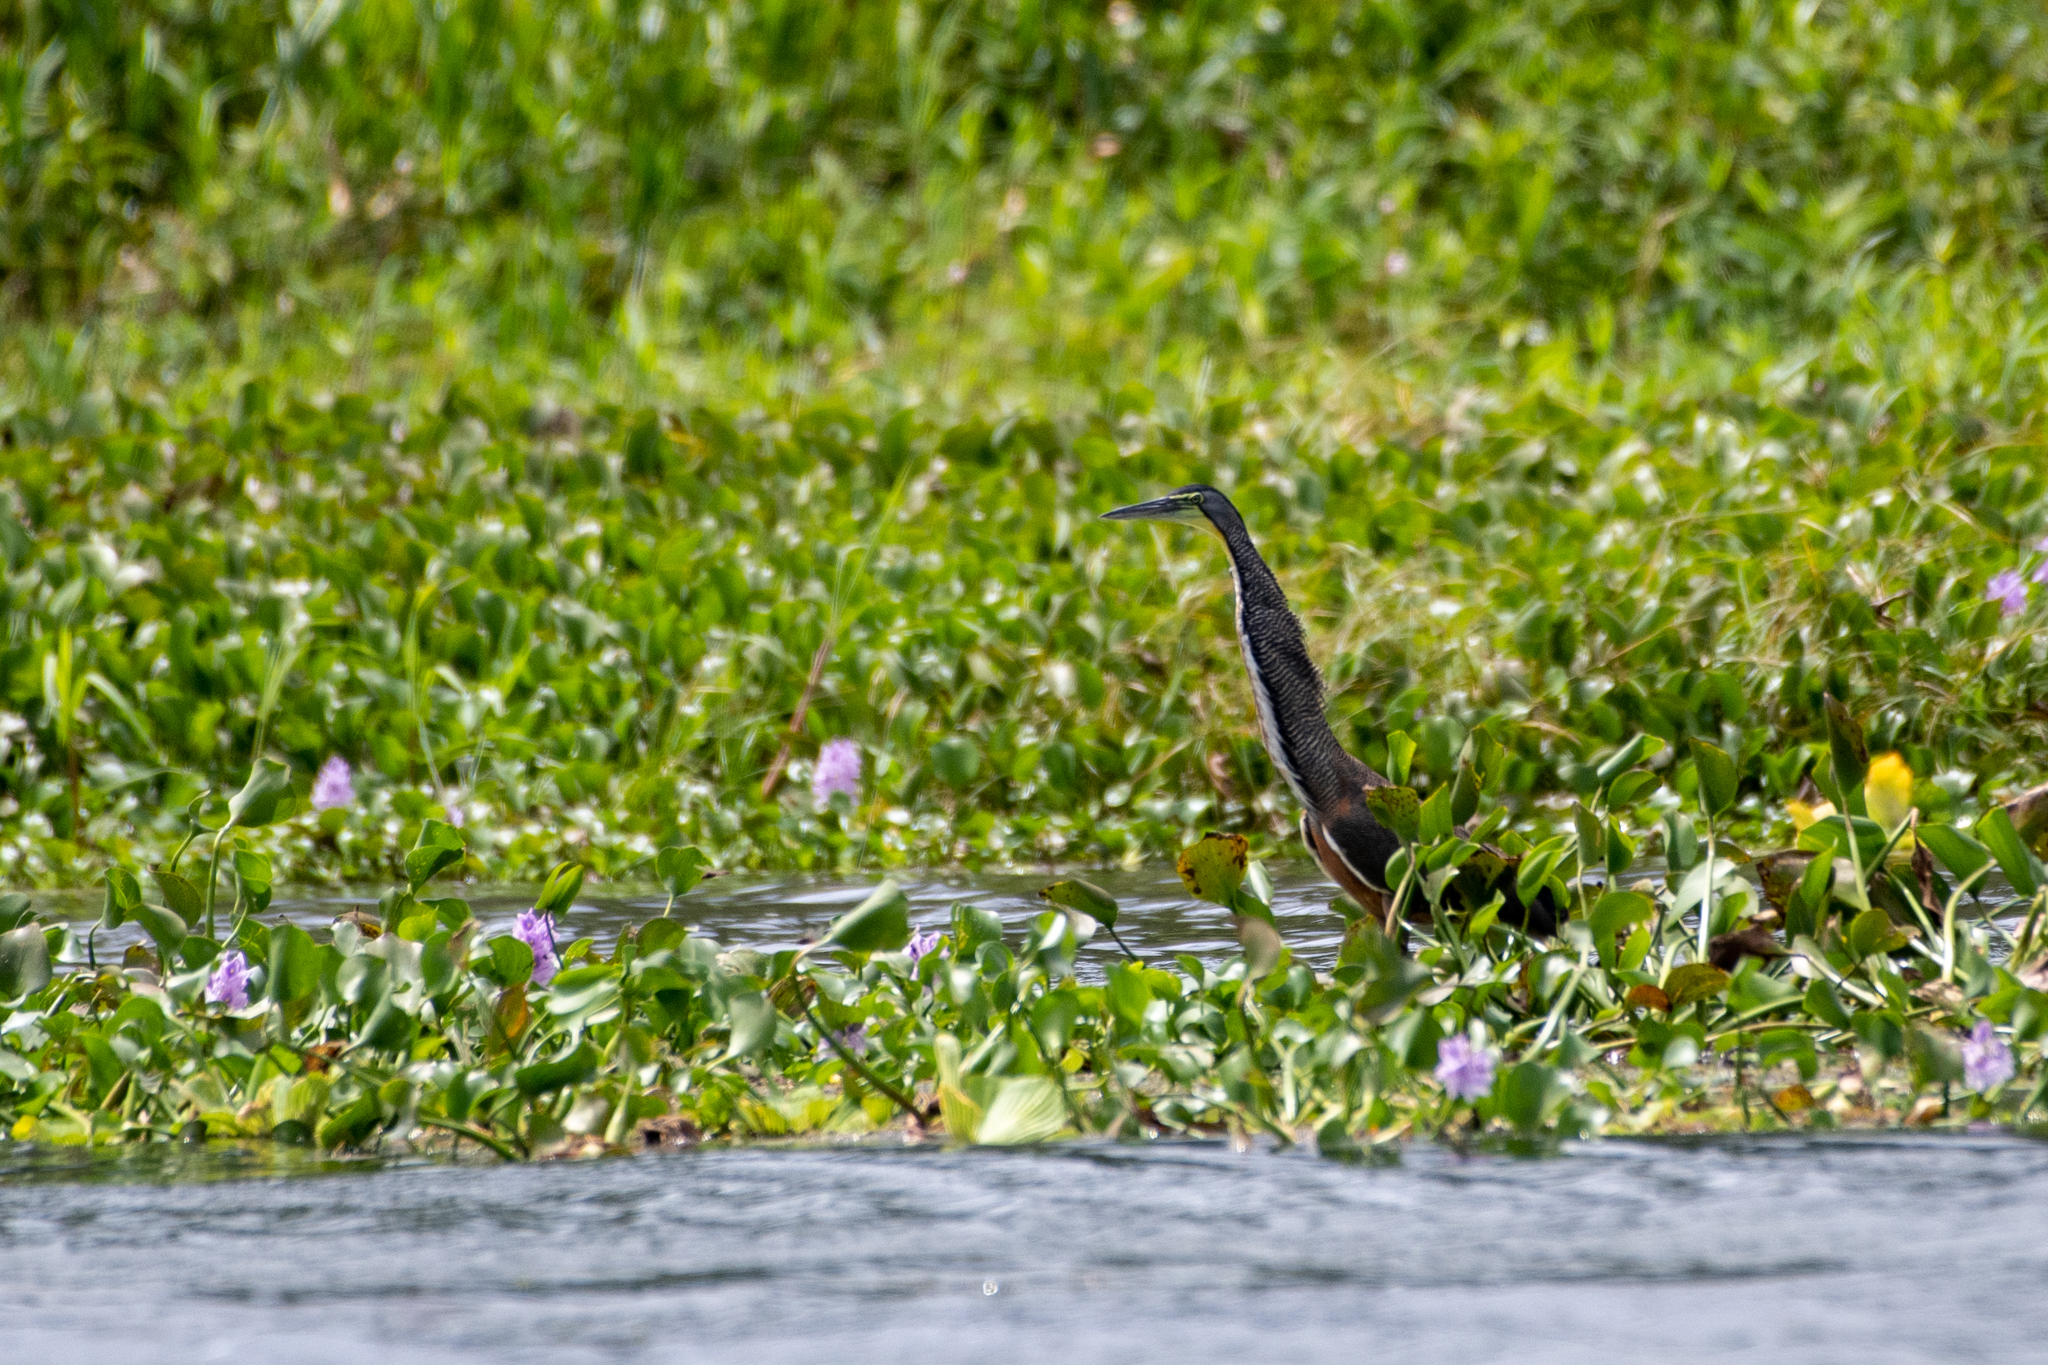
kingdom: Animalia
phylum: Chordata
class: Aves
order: Pelecaniformes
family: Ardeidae
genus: Tigrisoma
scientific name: Tigrisoma mexicanum
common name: Bare-throated tiger-heron
